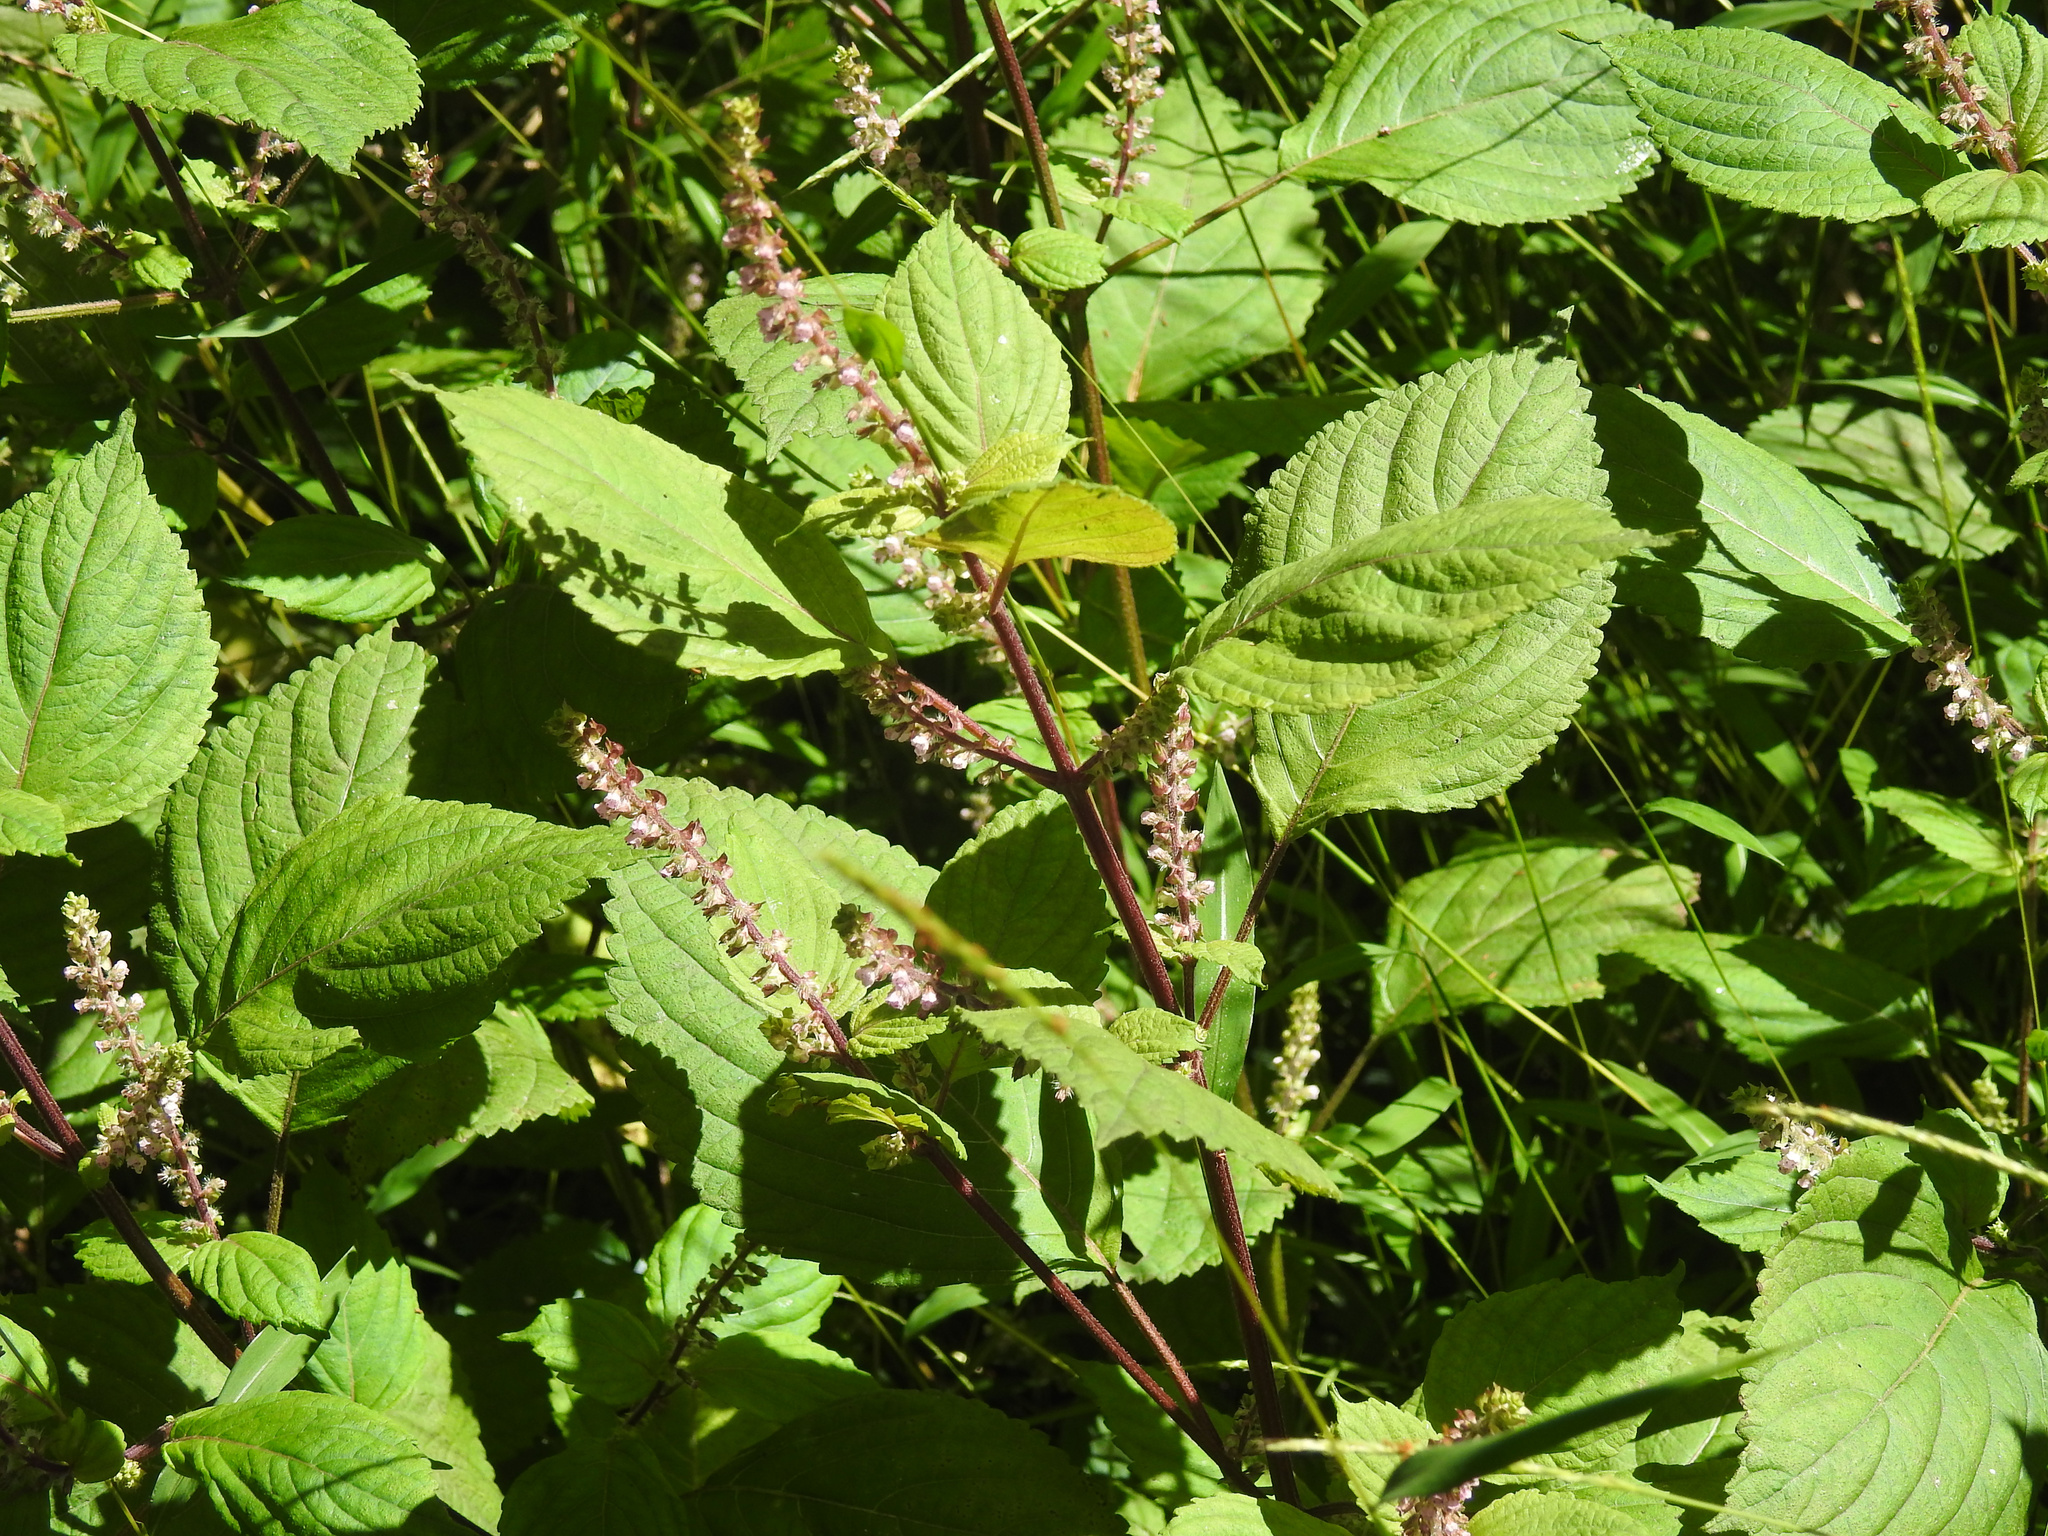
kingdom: Plantae
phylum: Tracheophyta
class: Magnoliopsida
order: Lamiales
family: Lamiaceae
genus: Perilla
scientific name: Perilla frutescens
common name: Perilla
